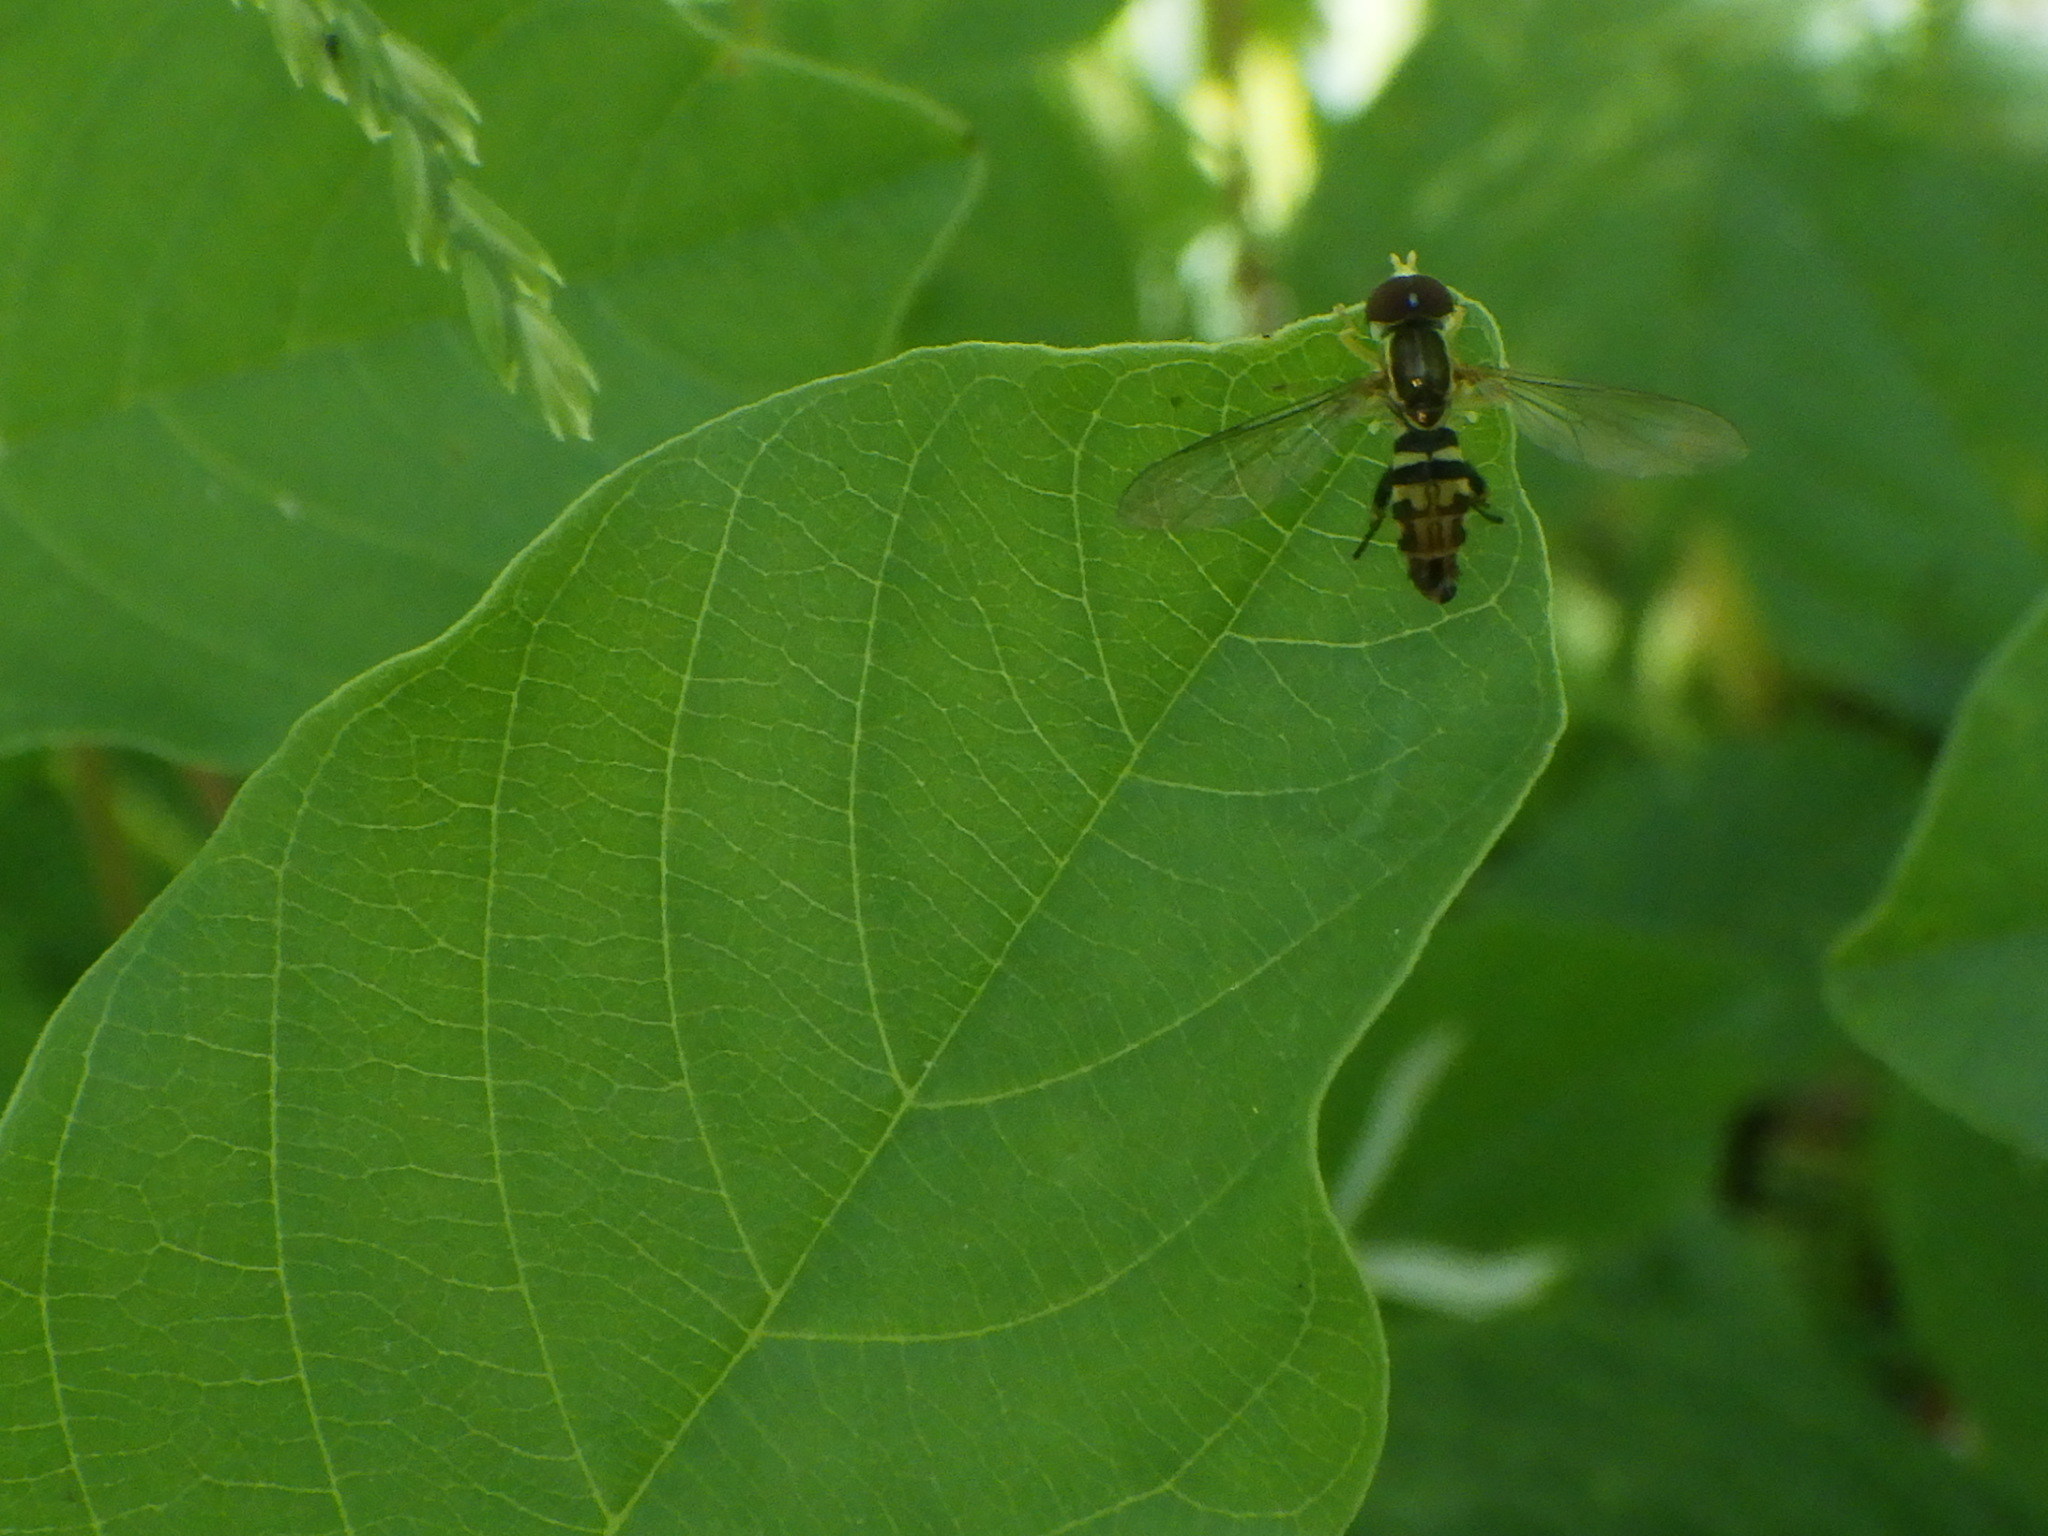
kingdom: Animalia
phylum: Arthropoda
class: Insecta
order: Diptera
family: Syrphidae
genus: Toxomerus
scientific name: Toxomerus geminatus
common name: Eastern calligrapher
